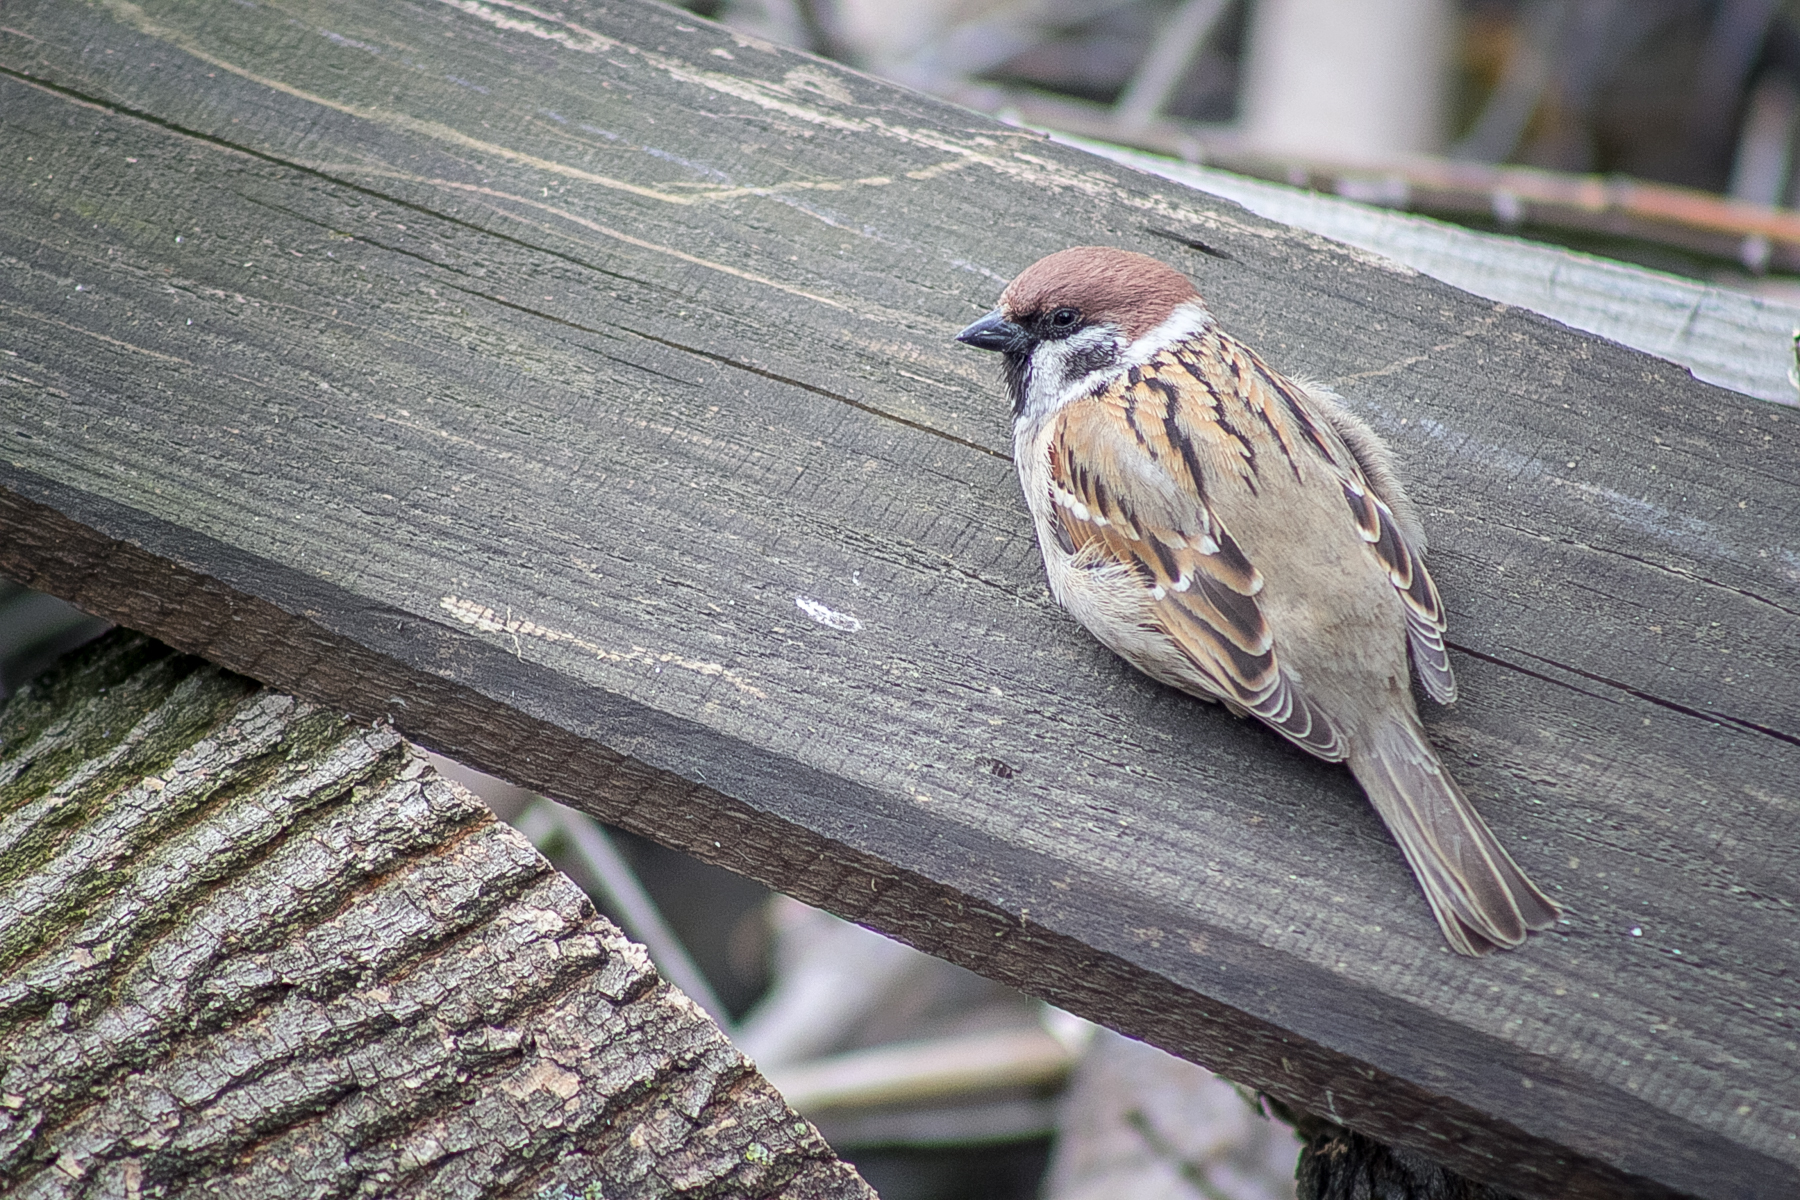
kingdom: Animalia
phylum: Chordata
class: Aves
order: Passeriformes
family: Passeridae
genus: Passer
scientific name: Passer montanus
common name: Eurasian tree sparrow
